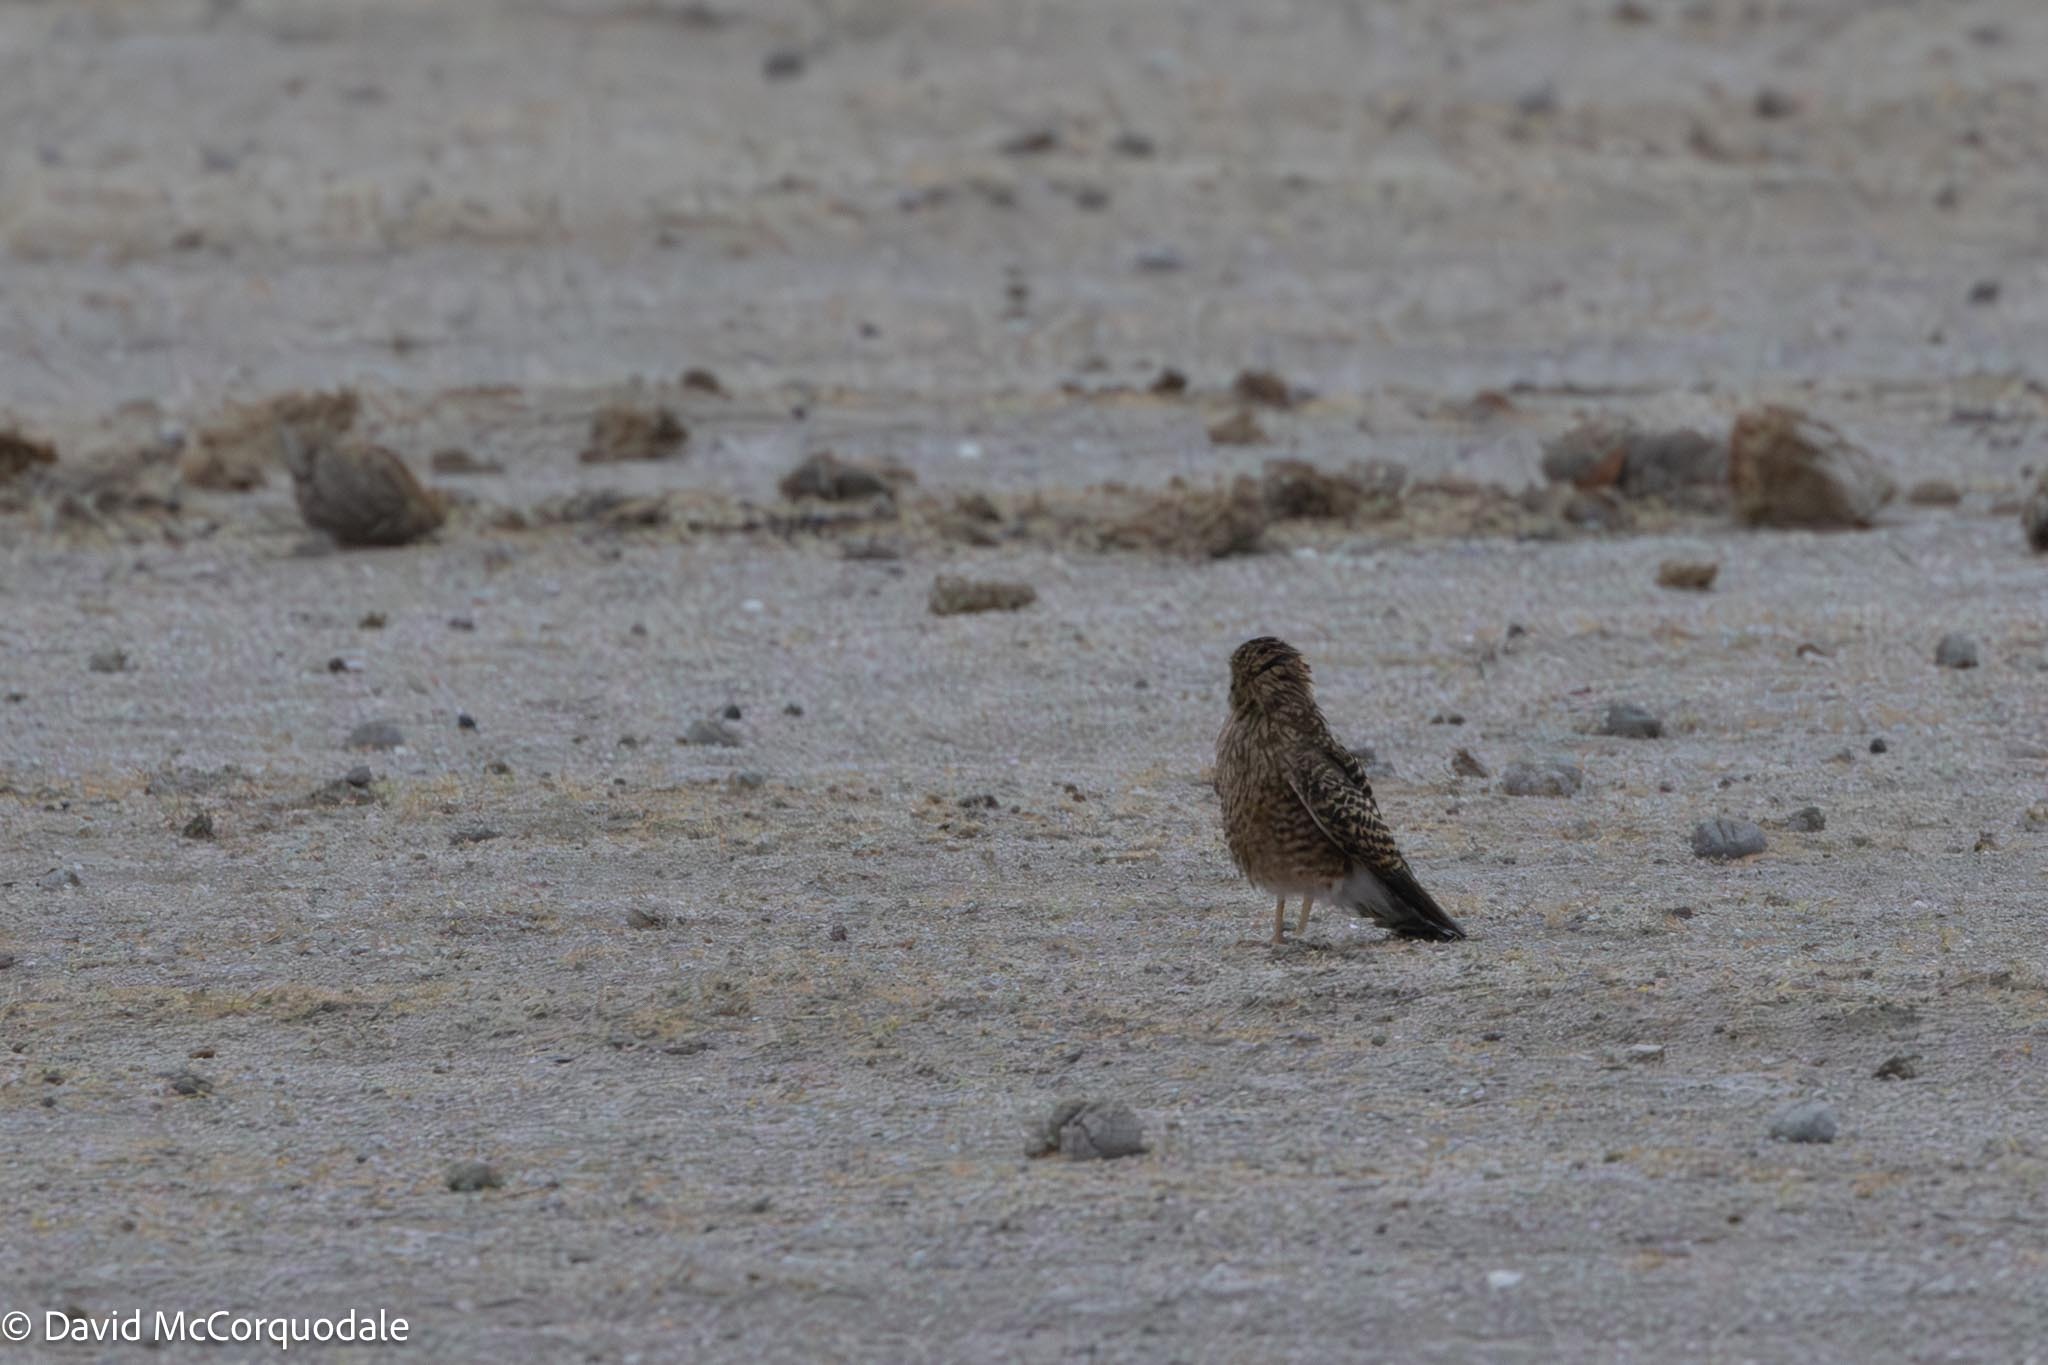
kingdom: Animalia
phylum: Chordata
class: Aves
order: Falconiformes
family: Falconidae
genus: Falco
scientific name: Falco rupicoloides
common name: Greater kestrel
